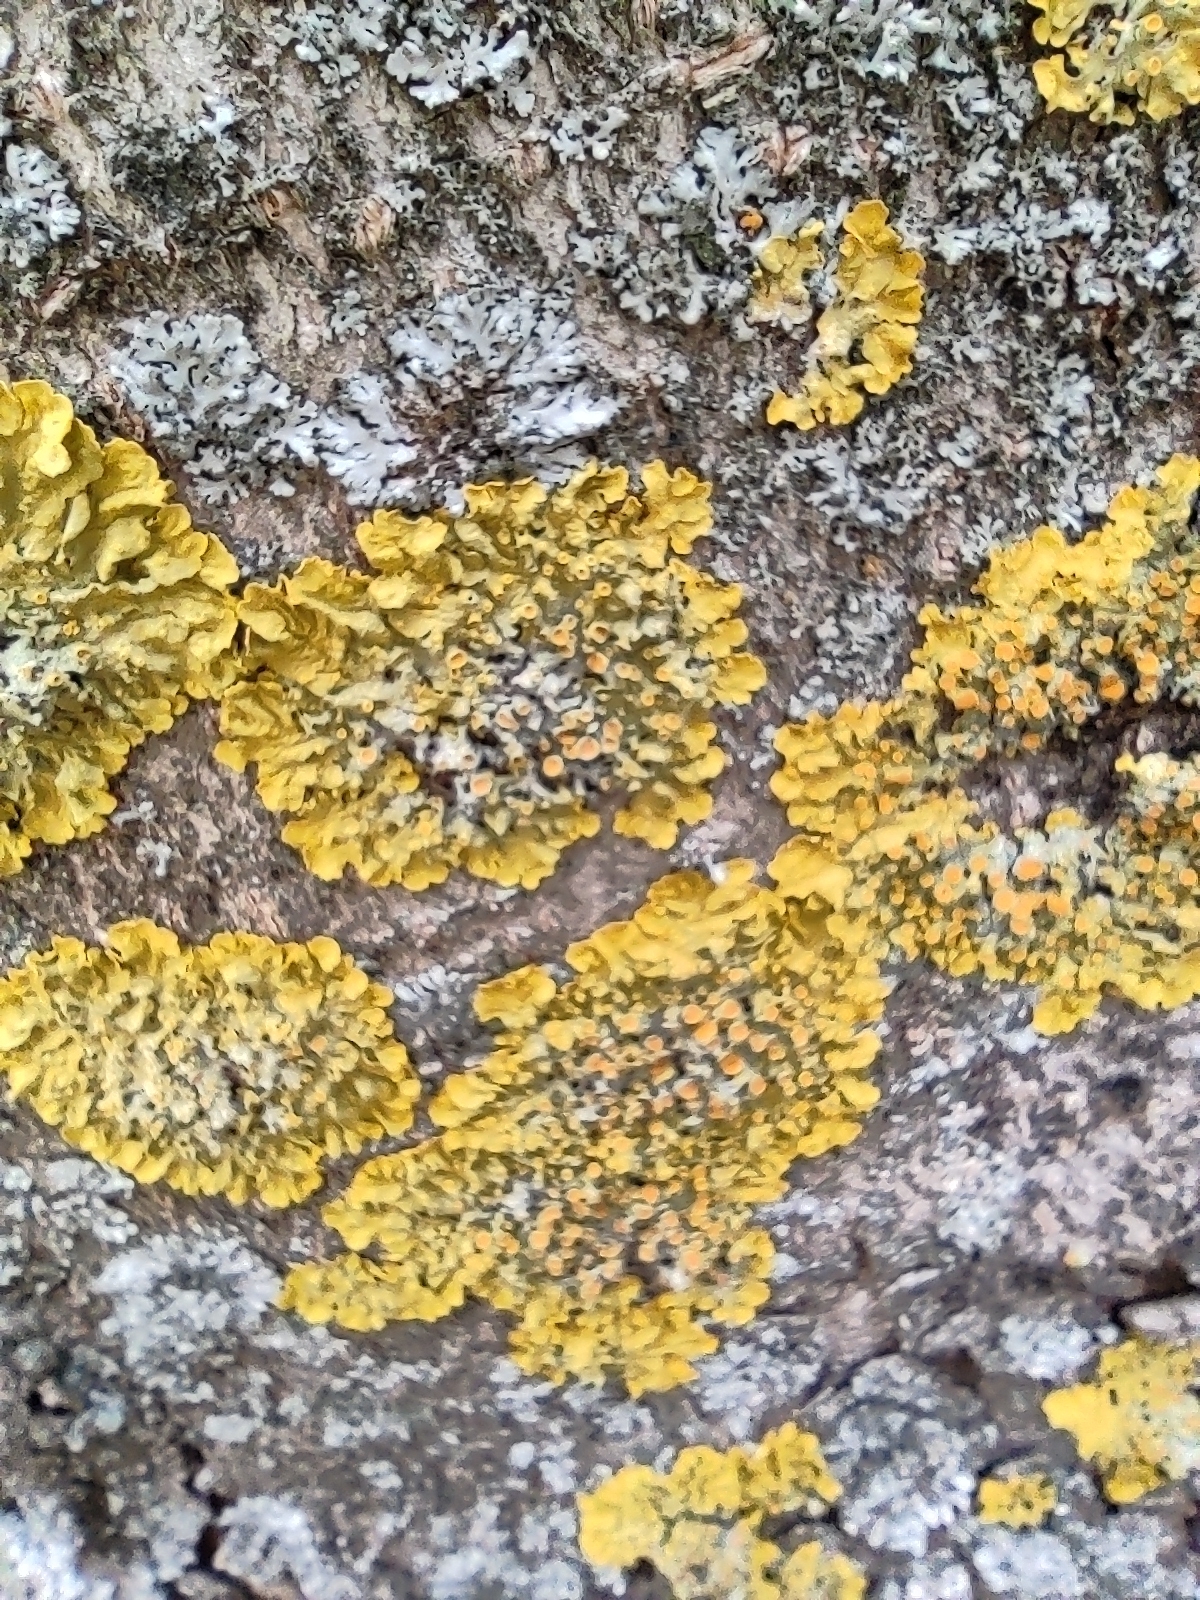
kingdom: Fungi
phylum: Ascomycota
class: Lecanoromycetes
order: Teloschistales
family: Teloschistaceae
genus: Xanthoria
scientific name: Xanthoria parietina
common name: Common orange lichen
